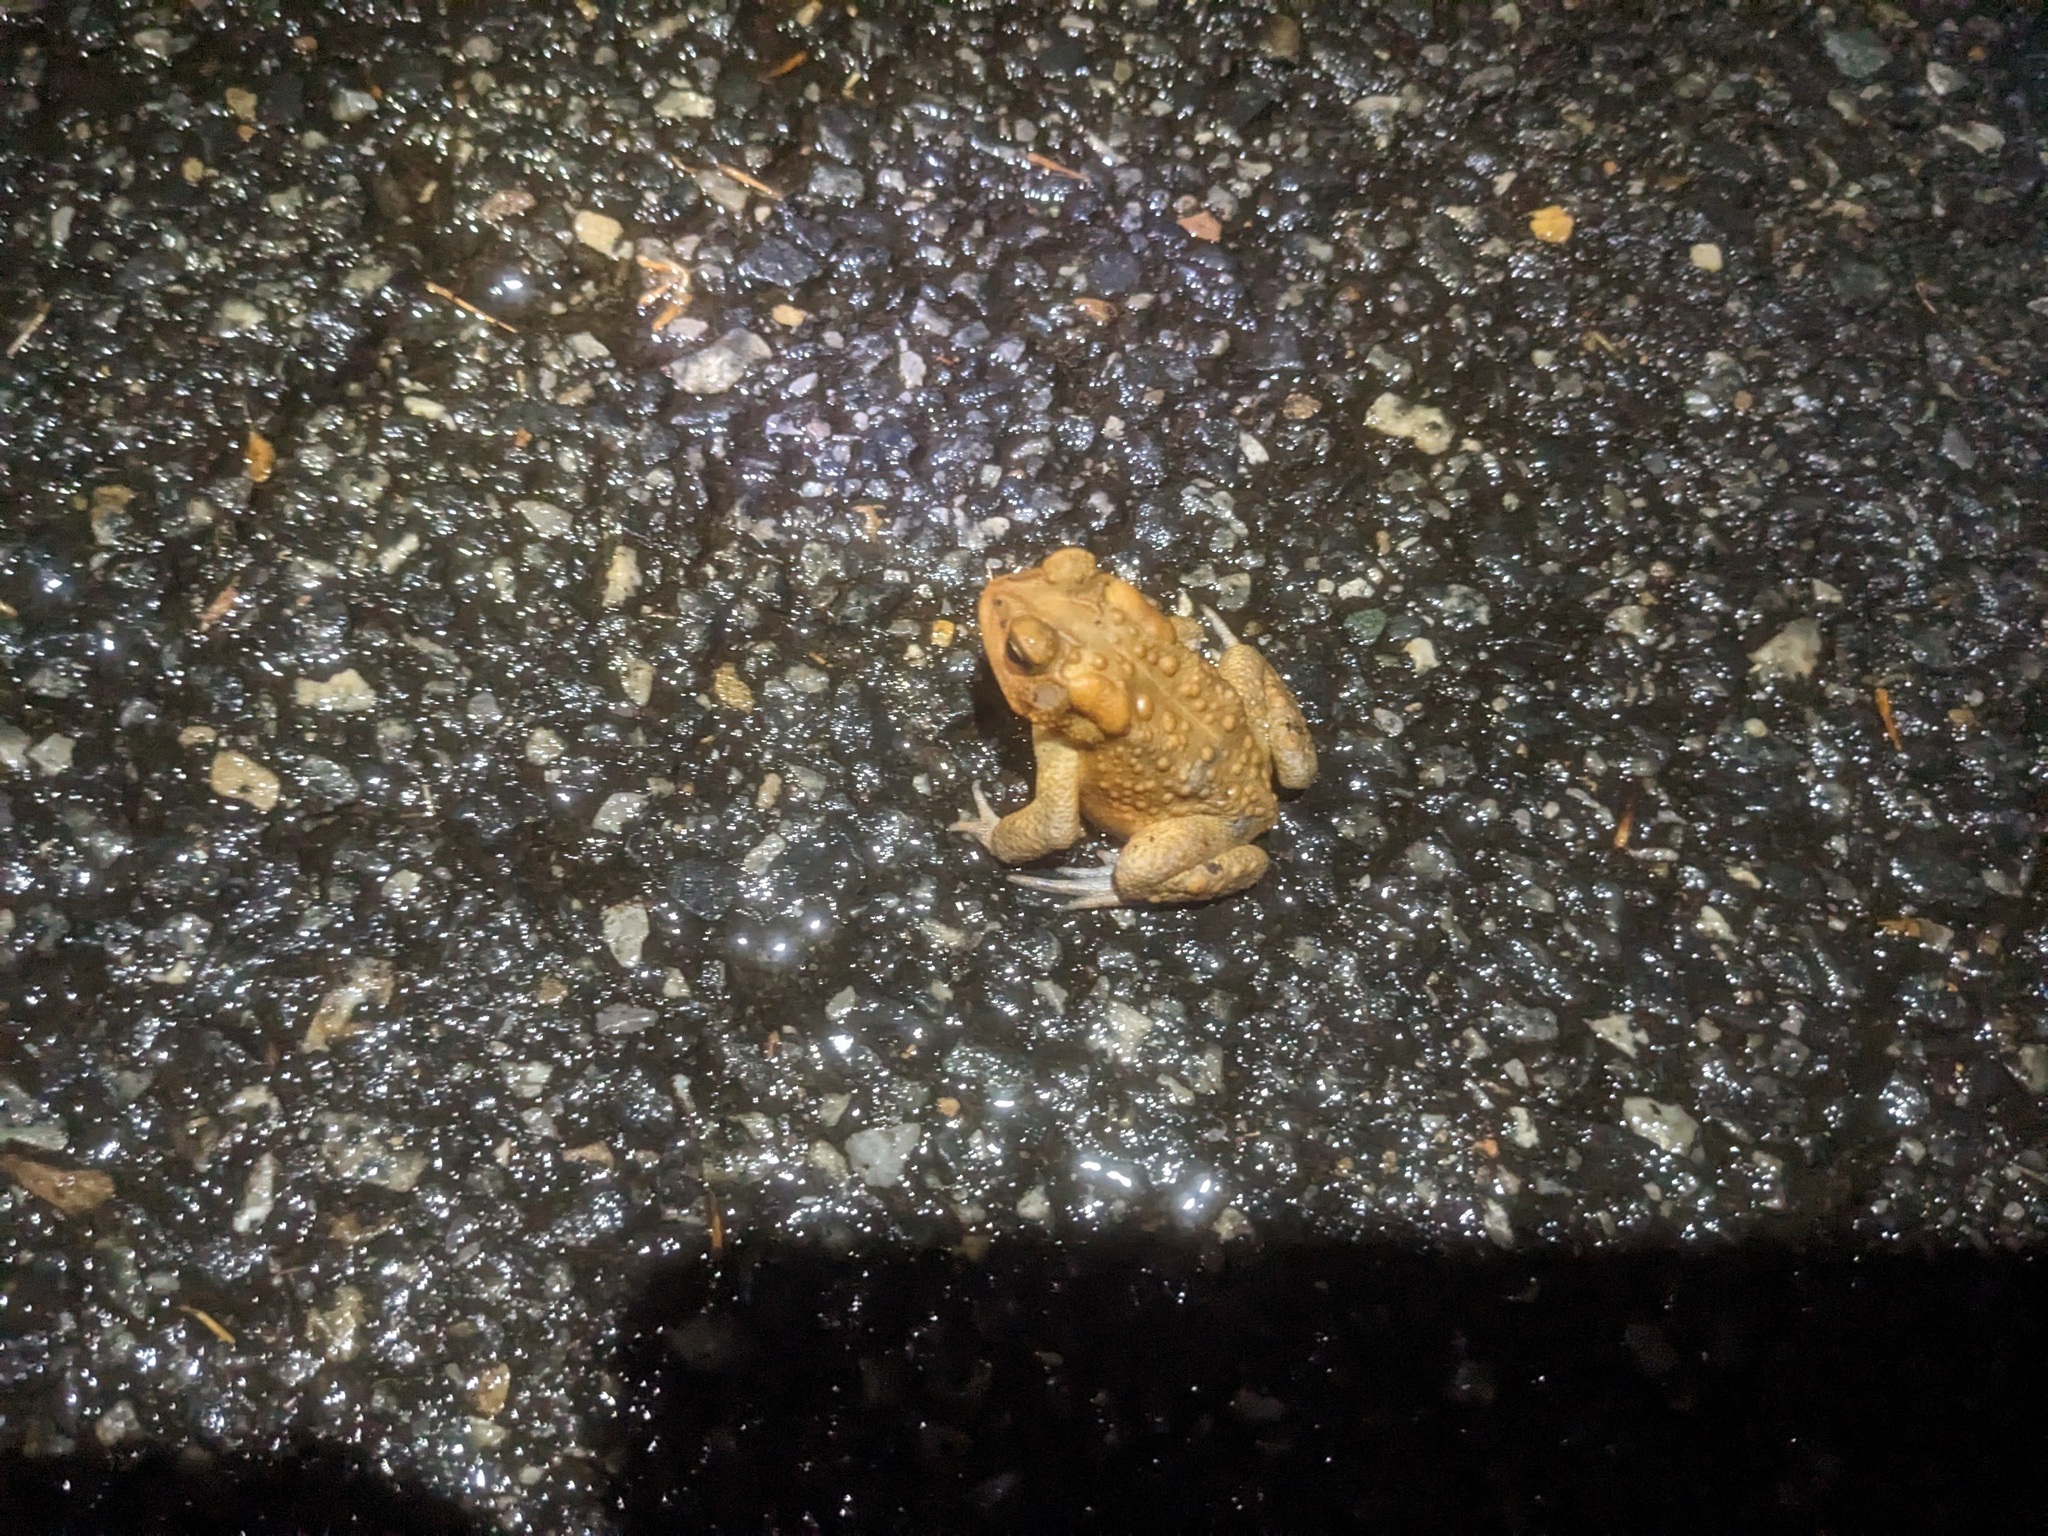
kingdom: Animalia
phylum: Chordata
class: Amphibia
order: Anura
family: Bufonidae
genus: Anaxyrus
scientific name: Anaxyrus americanus
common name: American toad
